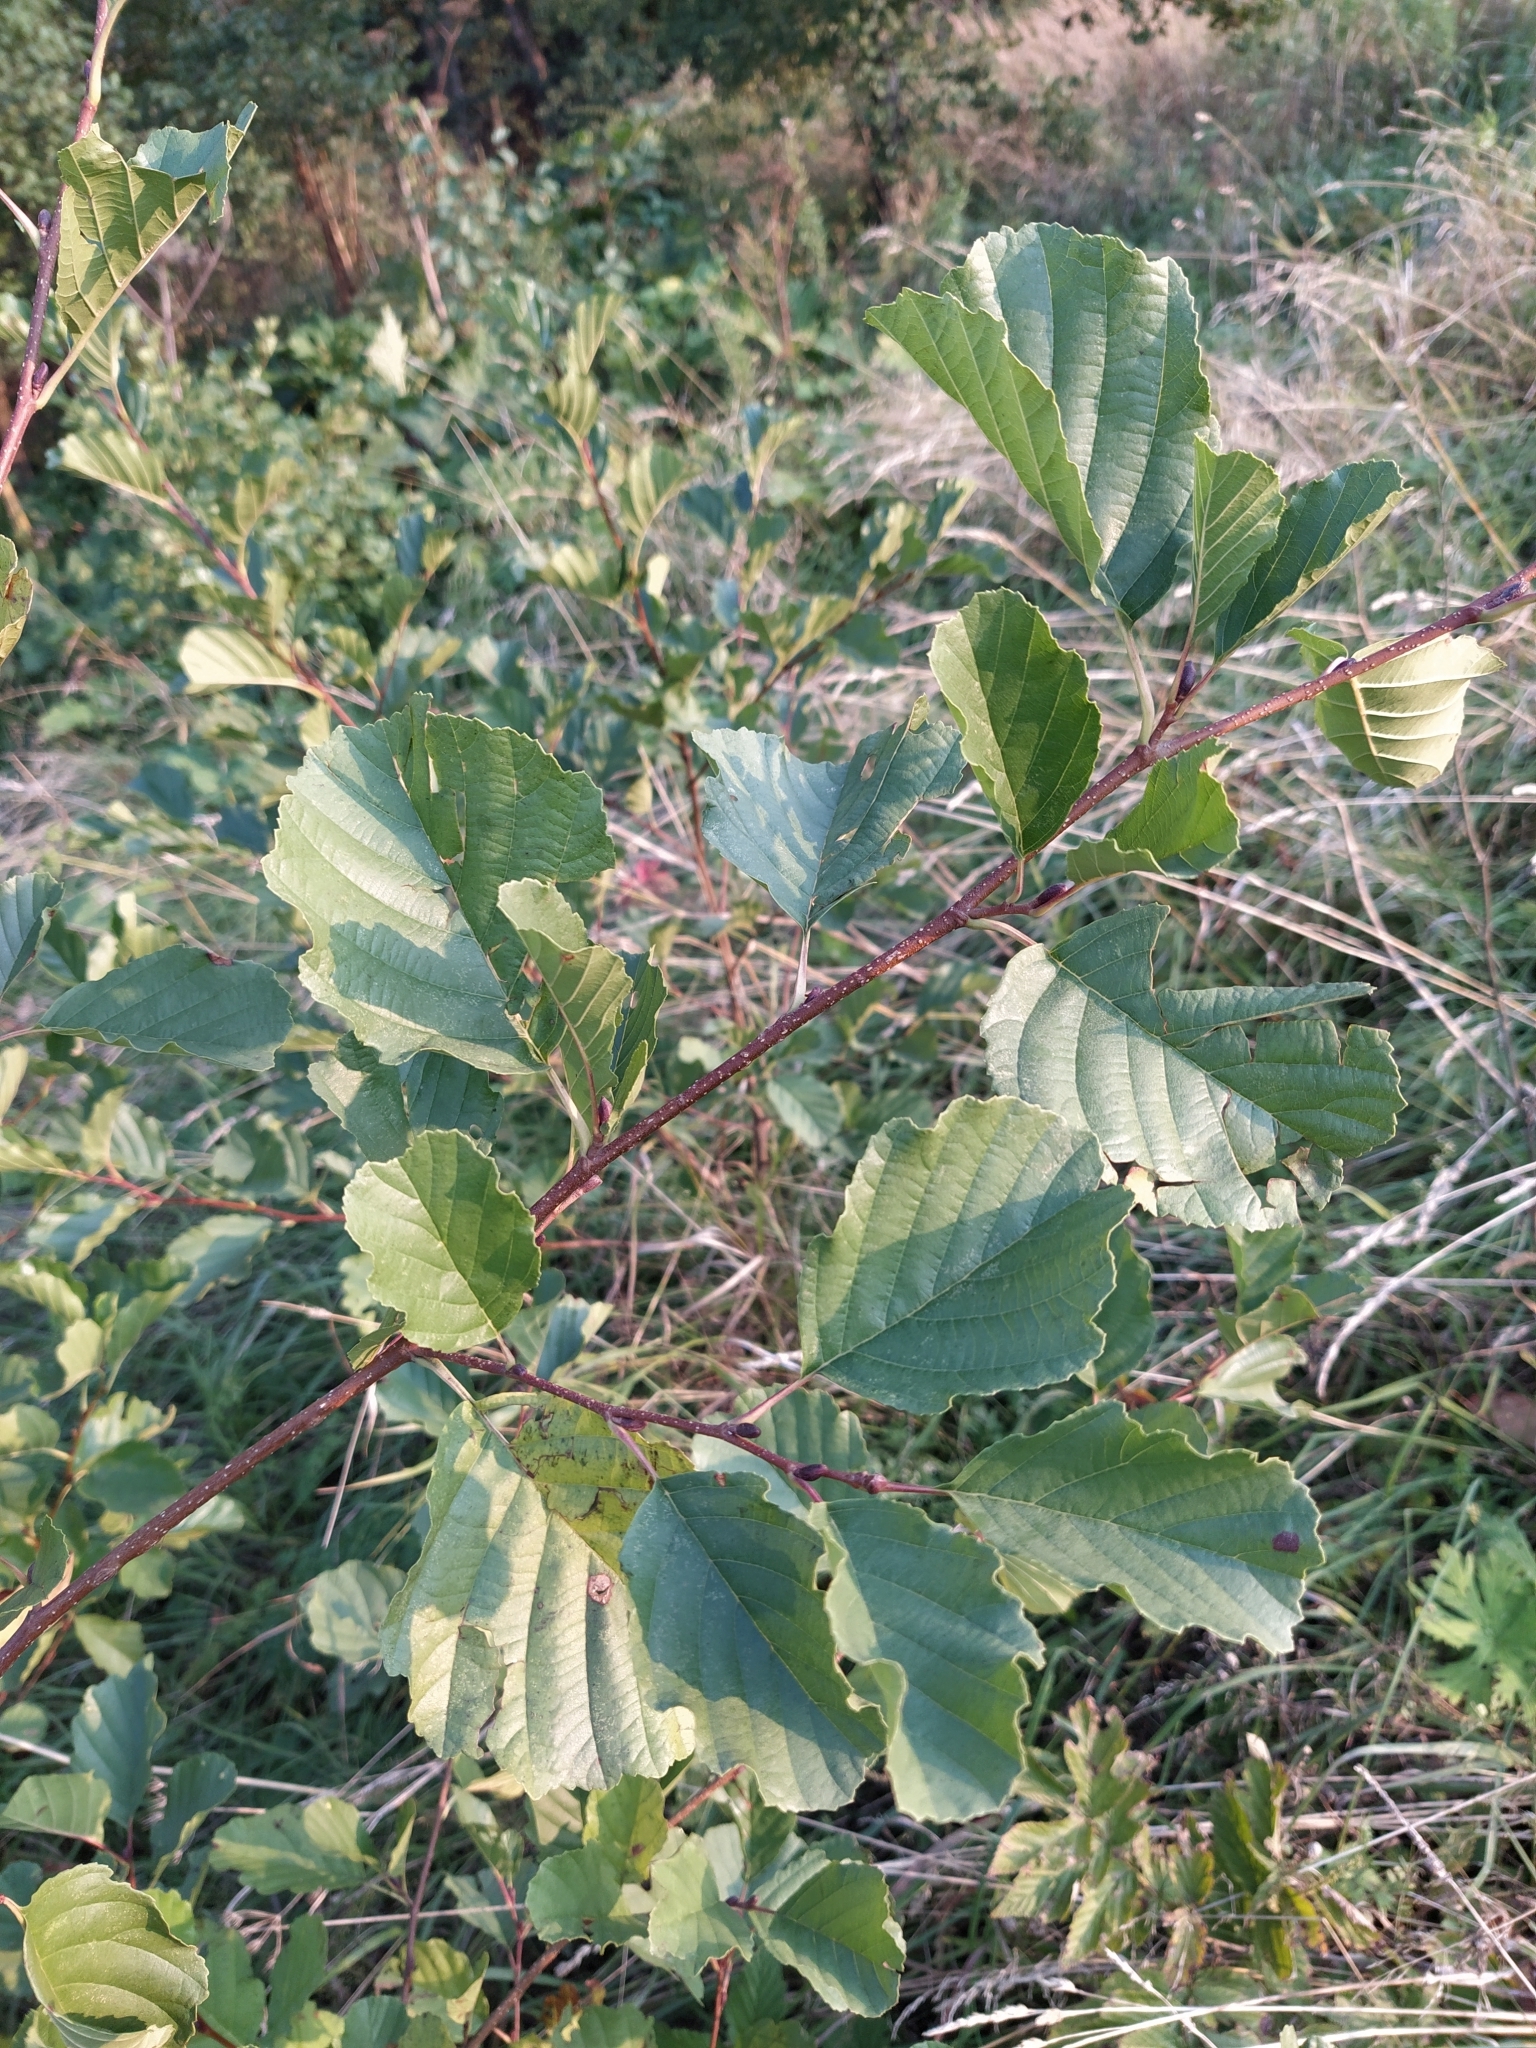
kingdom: Plantae
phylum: Tracheophyta
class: Magnoliopsida
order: Fagales
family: Betulaceae
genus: Alnus
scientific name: Alnus glutinosa
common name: Black alder
